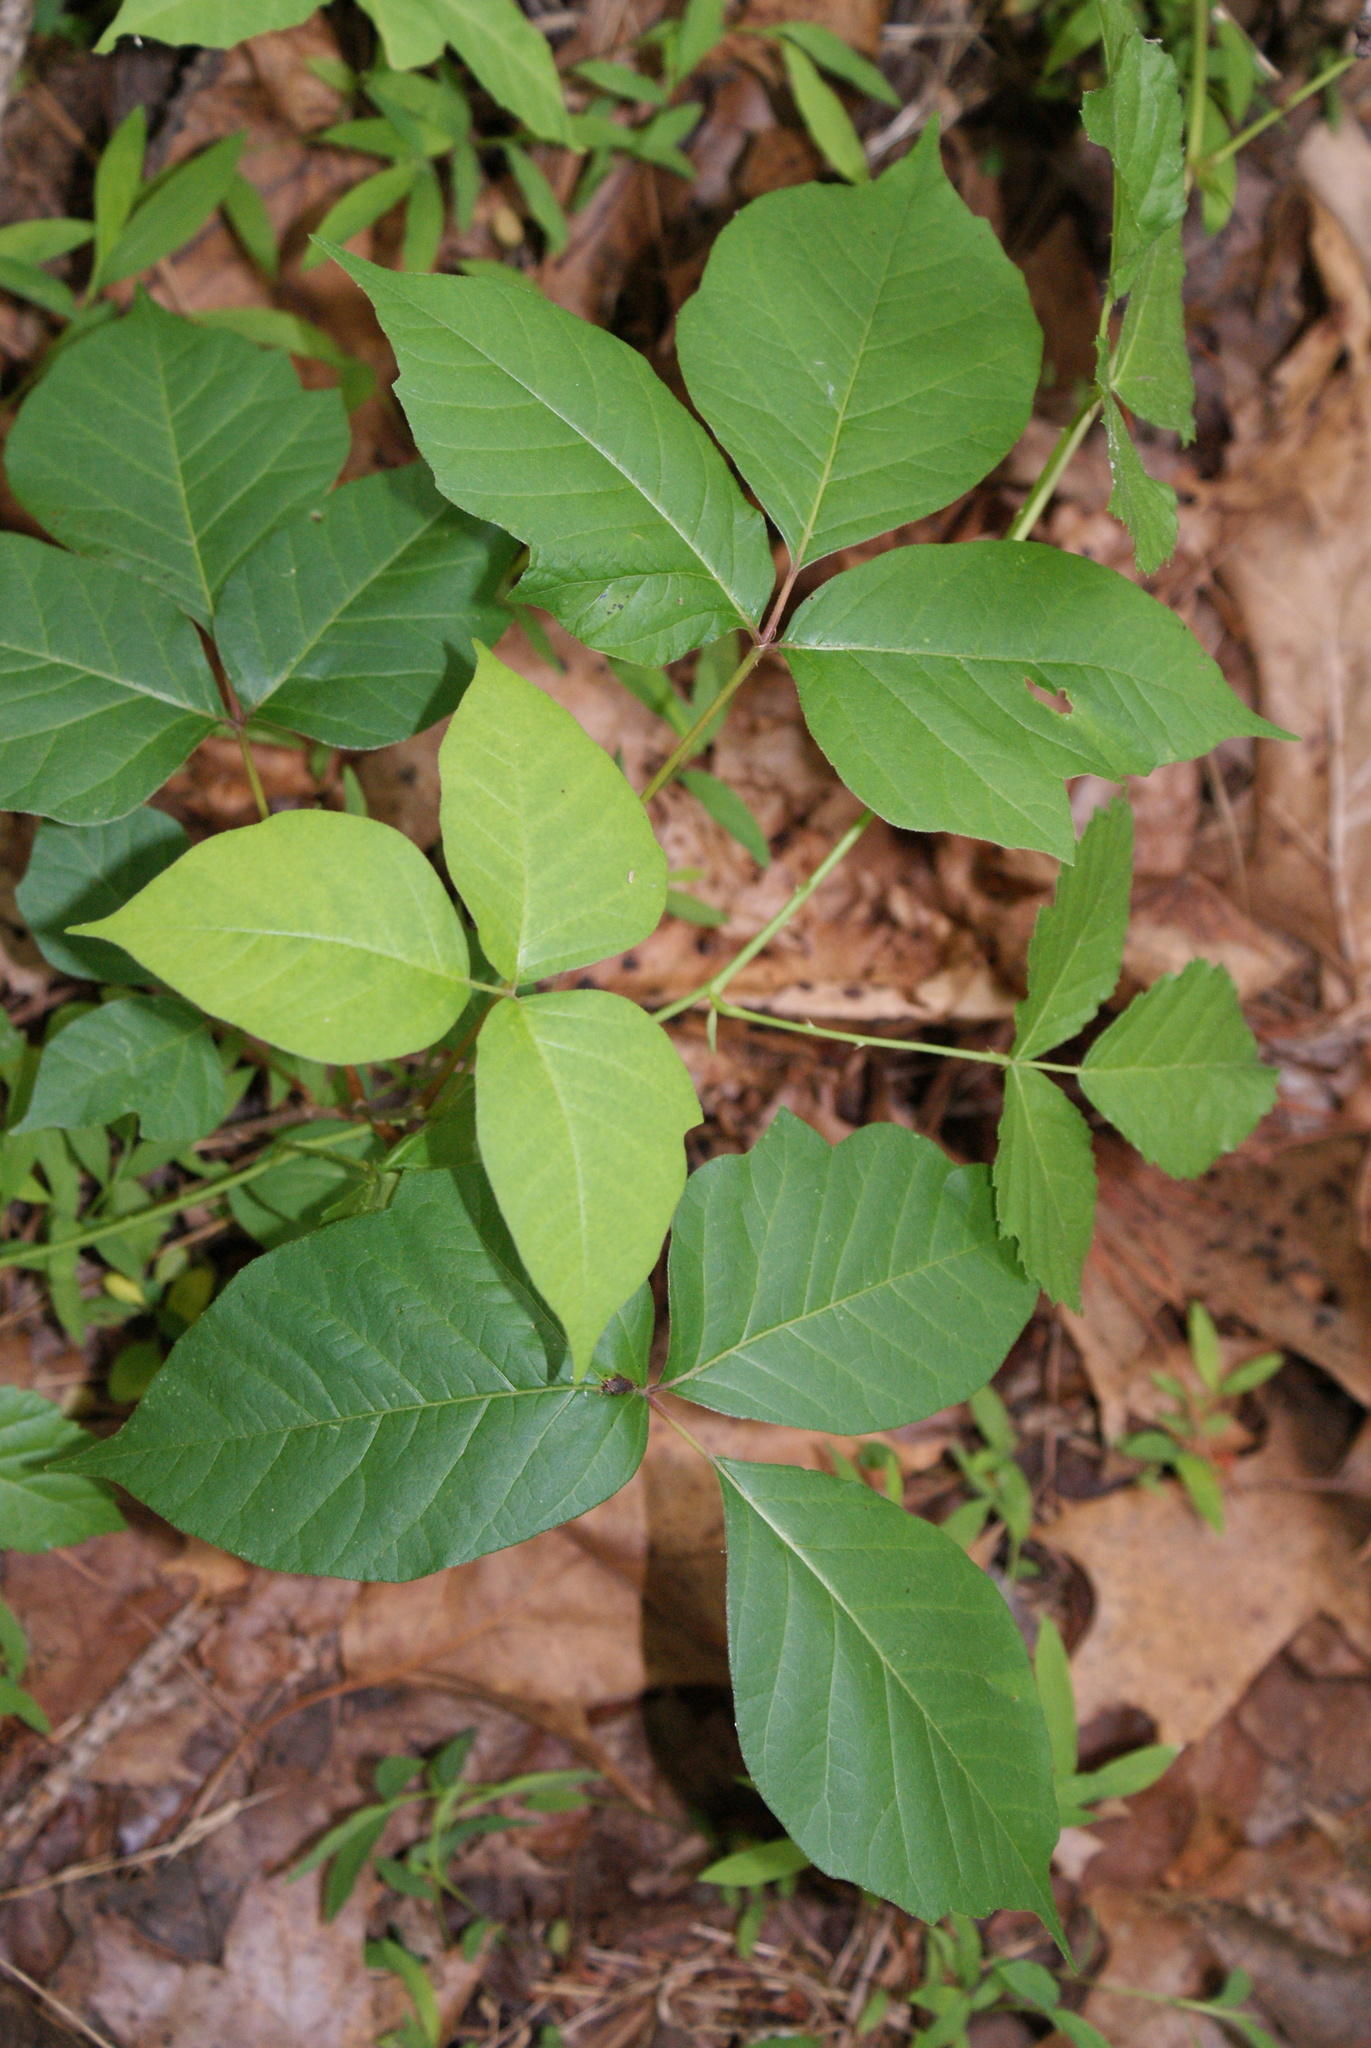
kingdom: Plantae
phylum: Tracheophyta
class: Magnoliopsida
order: Sapindales
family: Anacardiaceae
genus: Toxicodendron
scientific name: Toxicodendron radicans
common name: Poison ivy
